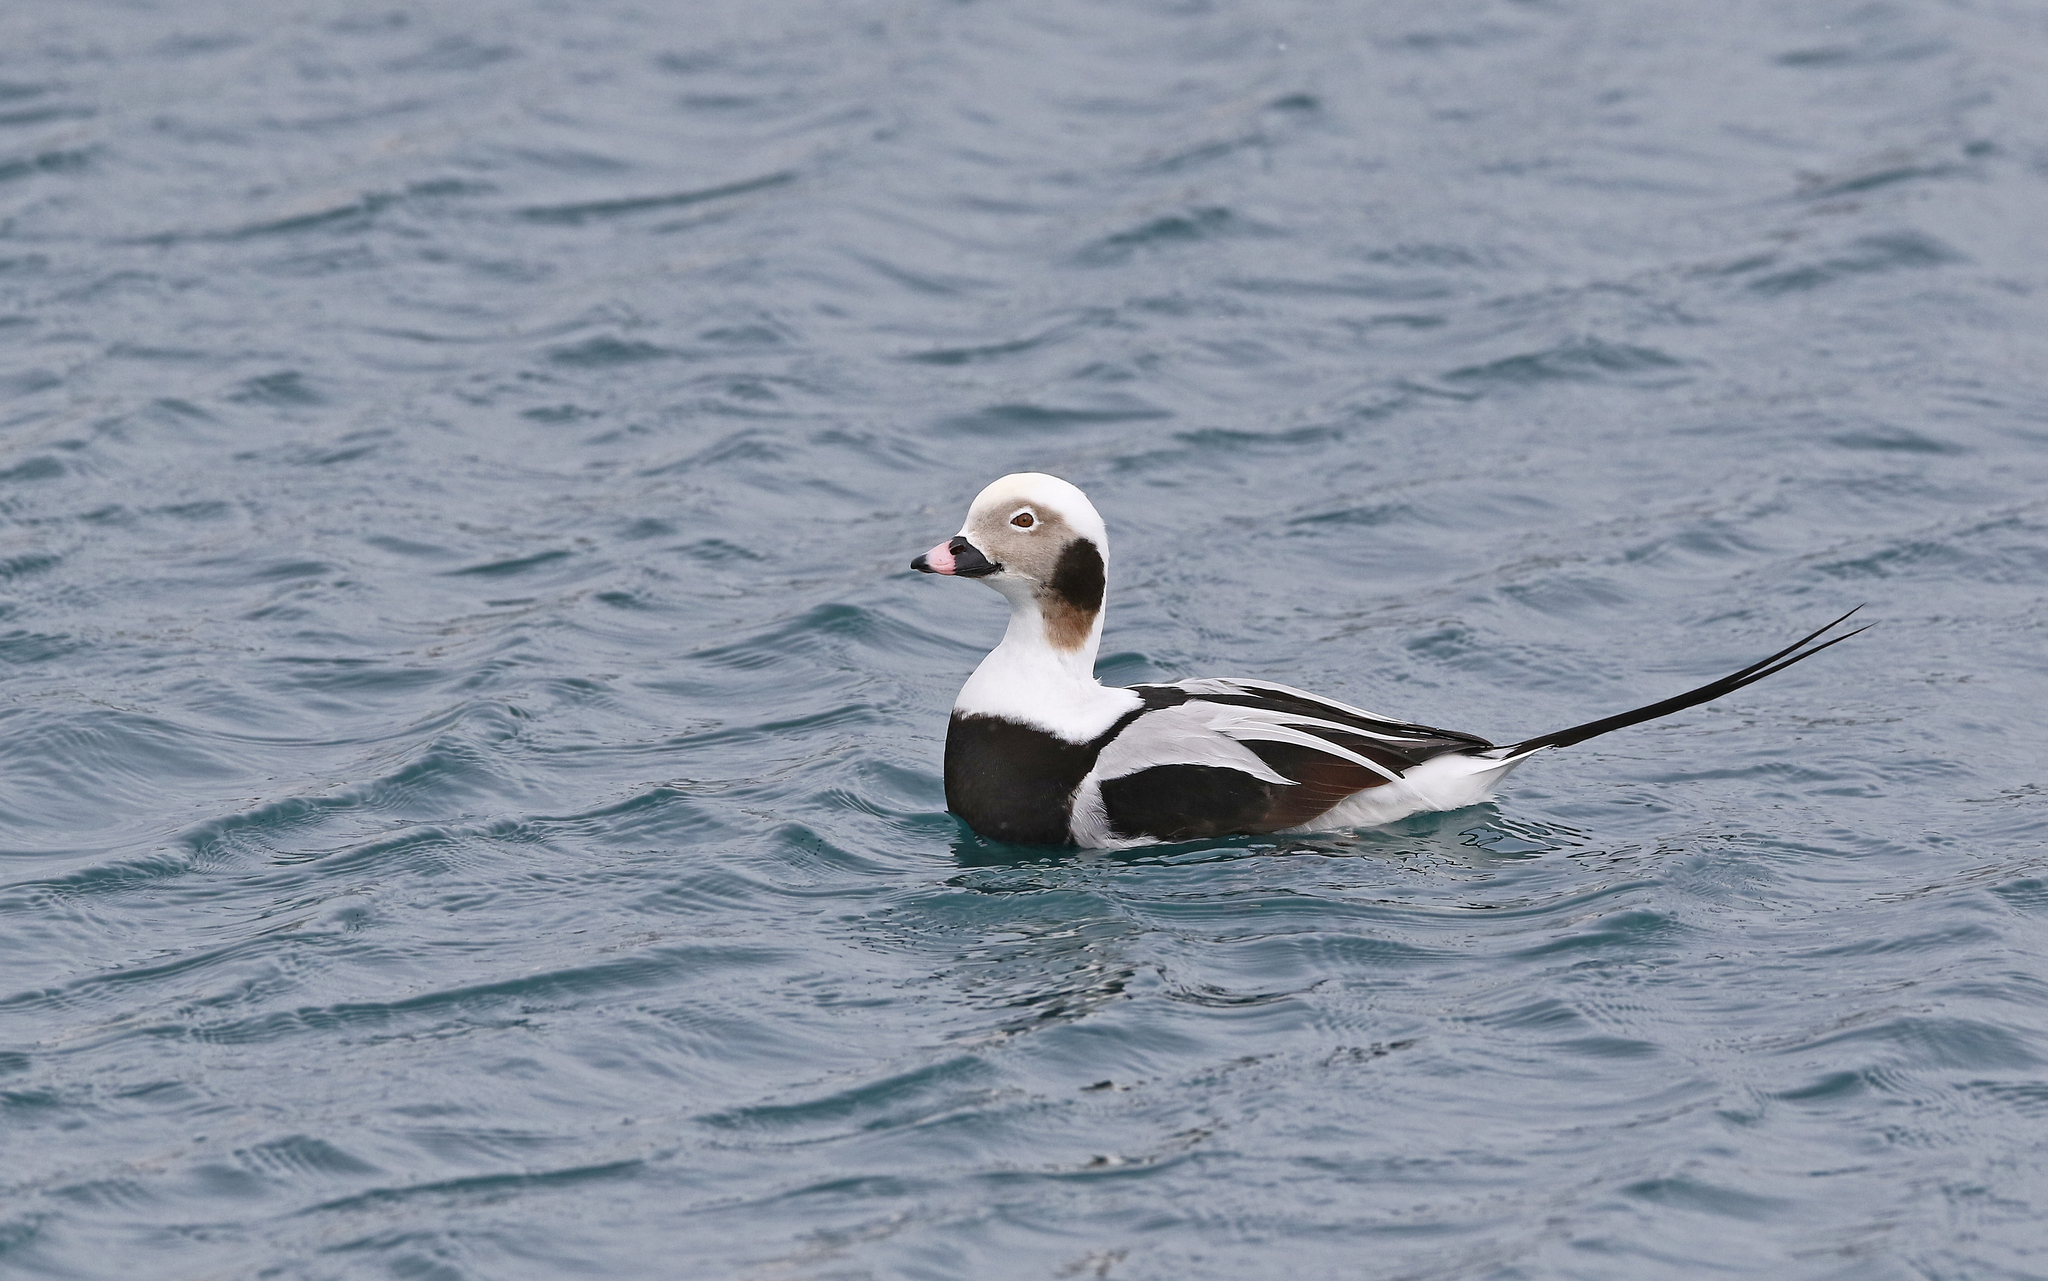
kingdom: Animalia
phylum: Chordata
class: Aves
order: Anseriformes
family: Anatidae
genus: Clangula
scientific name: Clangula hyemalis
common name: Long-tailed duck
